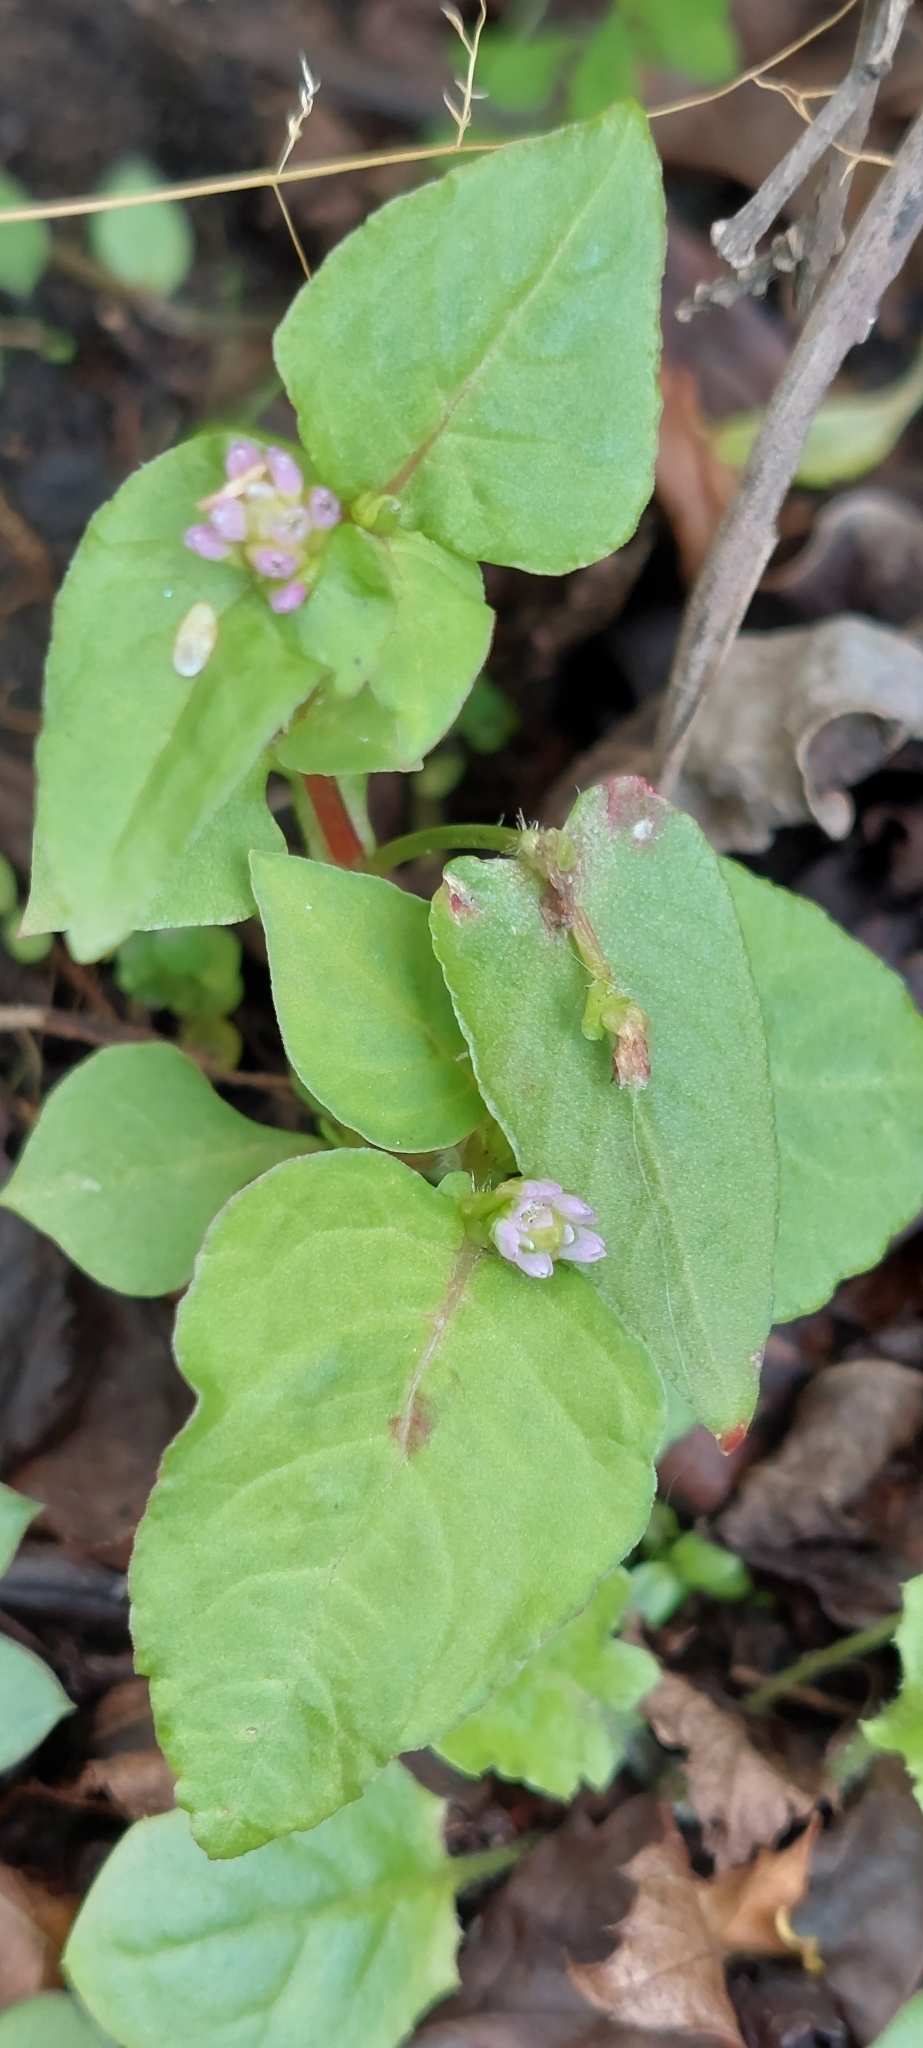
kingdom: Plantae
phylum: Tracheophyta
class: Magnoliopsida
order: Caryophyllales
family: Polygonaceae
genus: Persicaria
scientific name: Persicaria nepalensis
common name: Nepal persicaria
